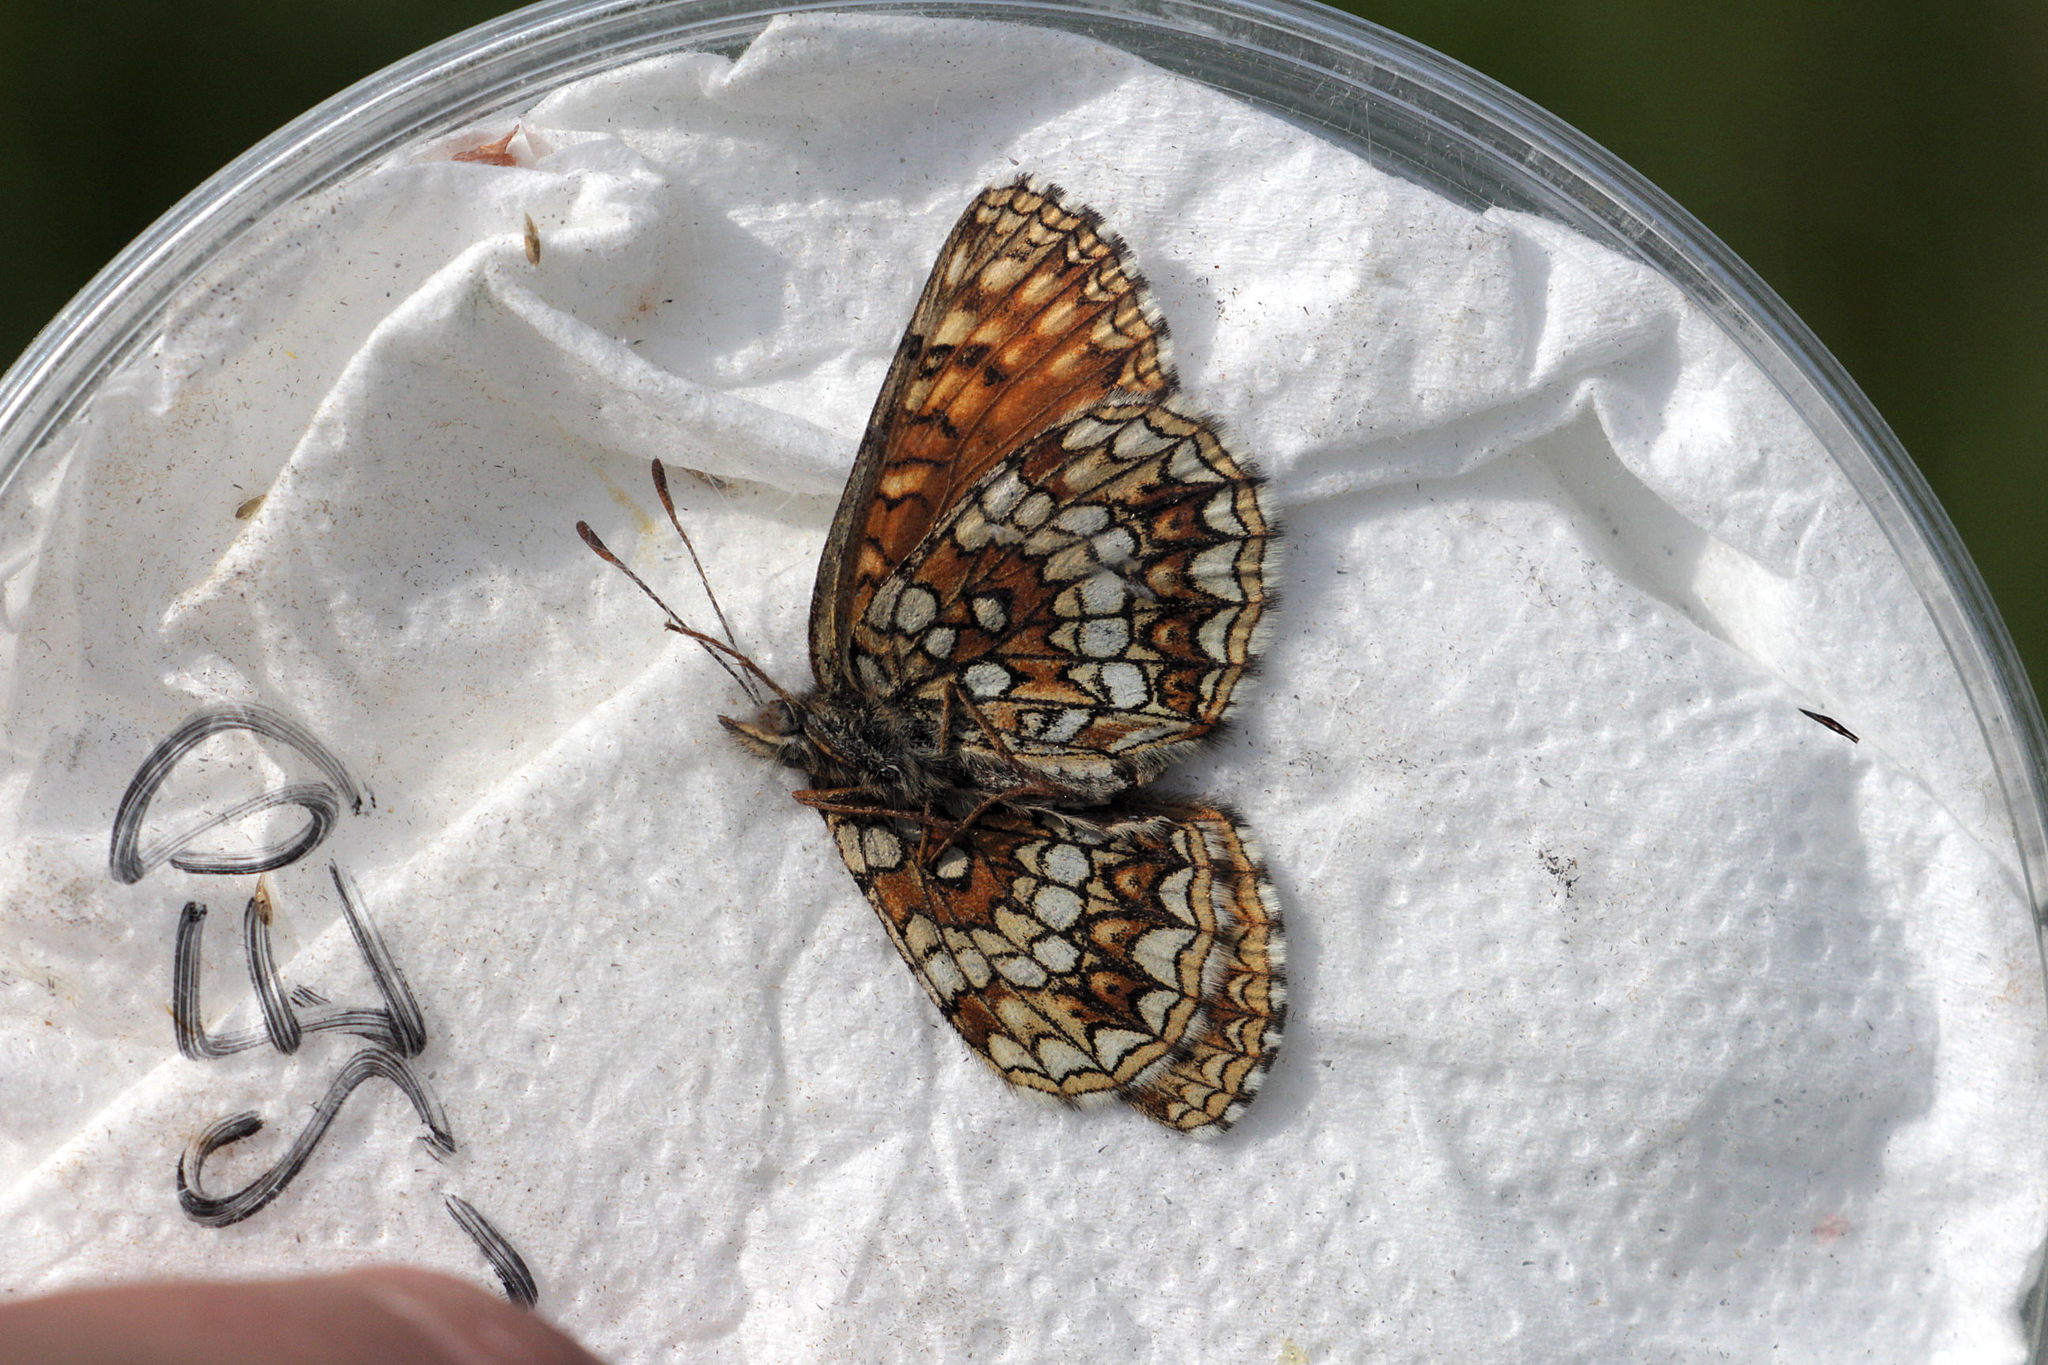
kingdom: Animalia
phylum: Arthropoda
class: Insecta
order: Lepidoptera
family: Nymphalidae
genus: Melitaea
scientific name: Melitaea diamina
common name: False heath fritillary
